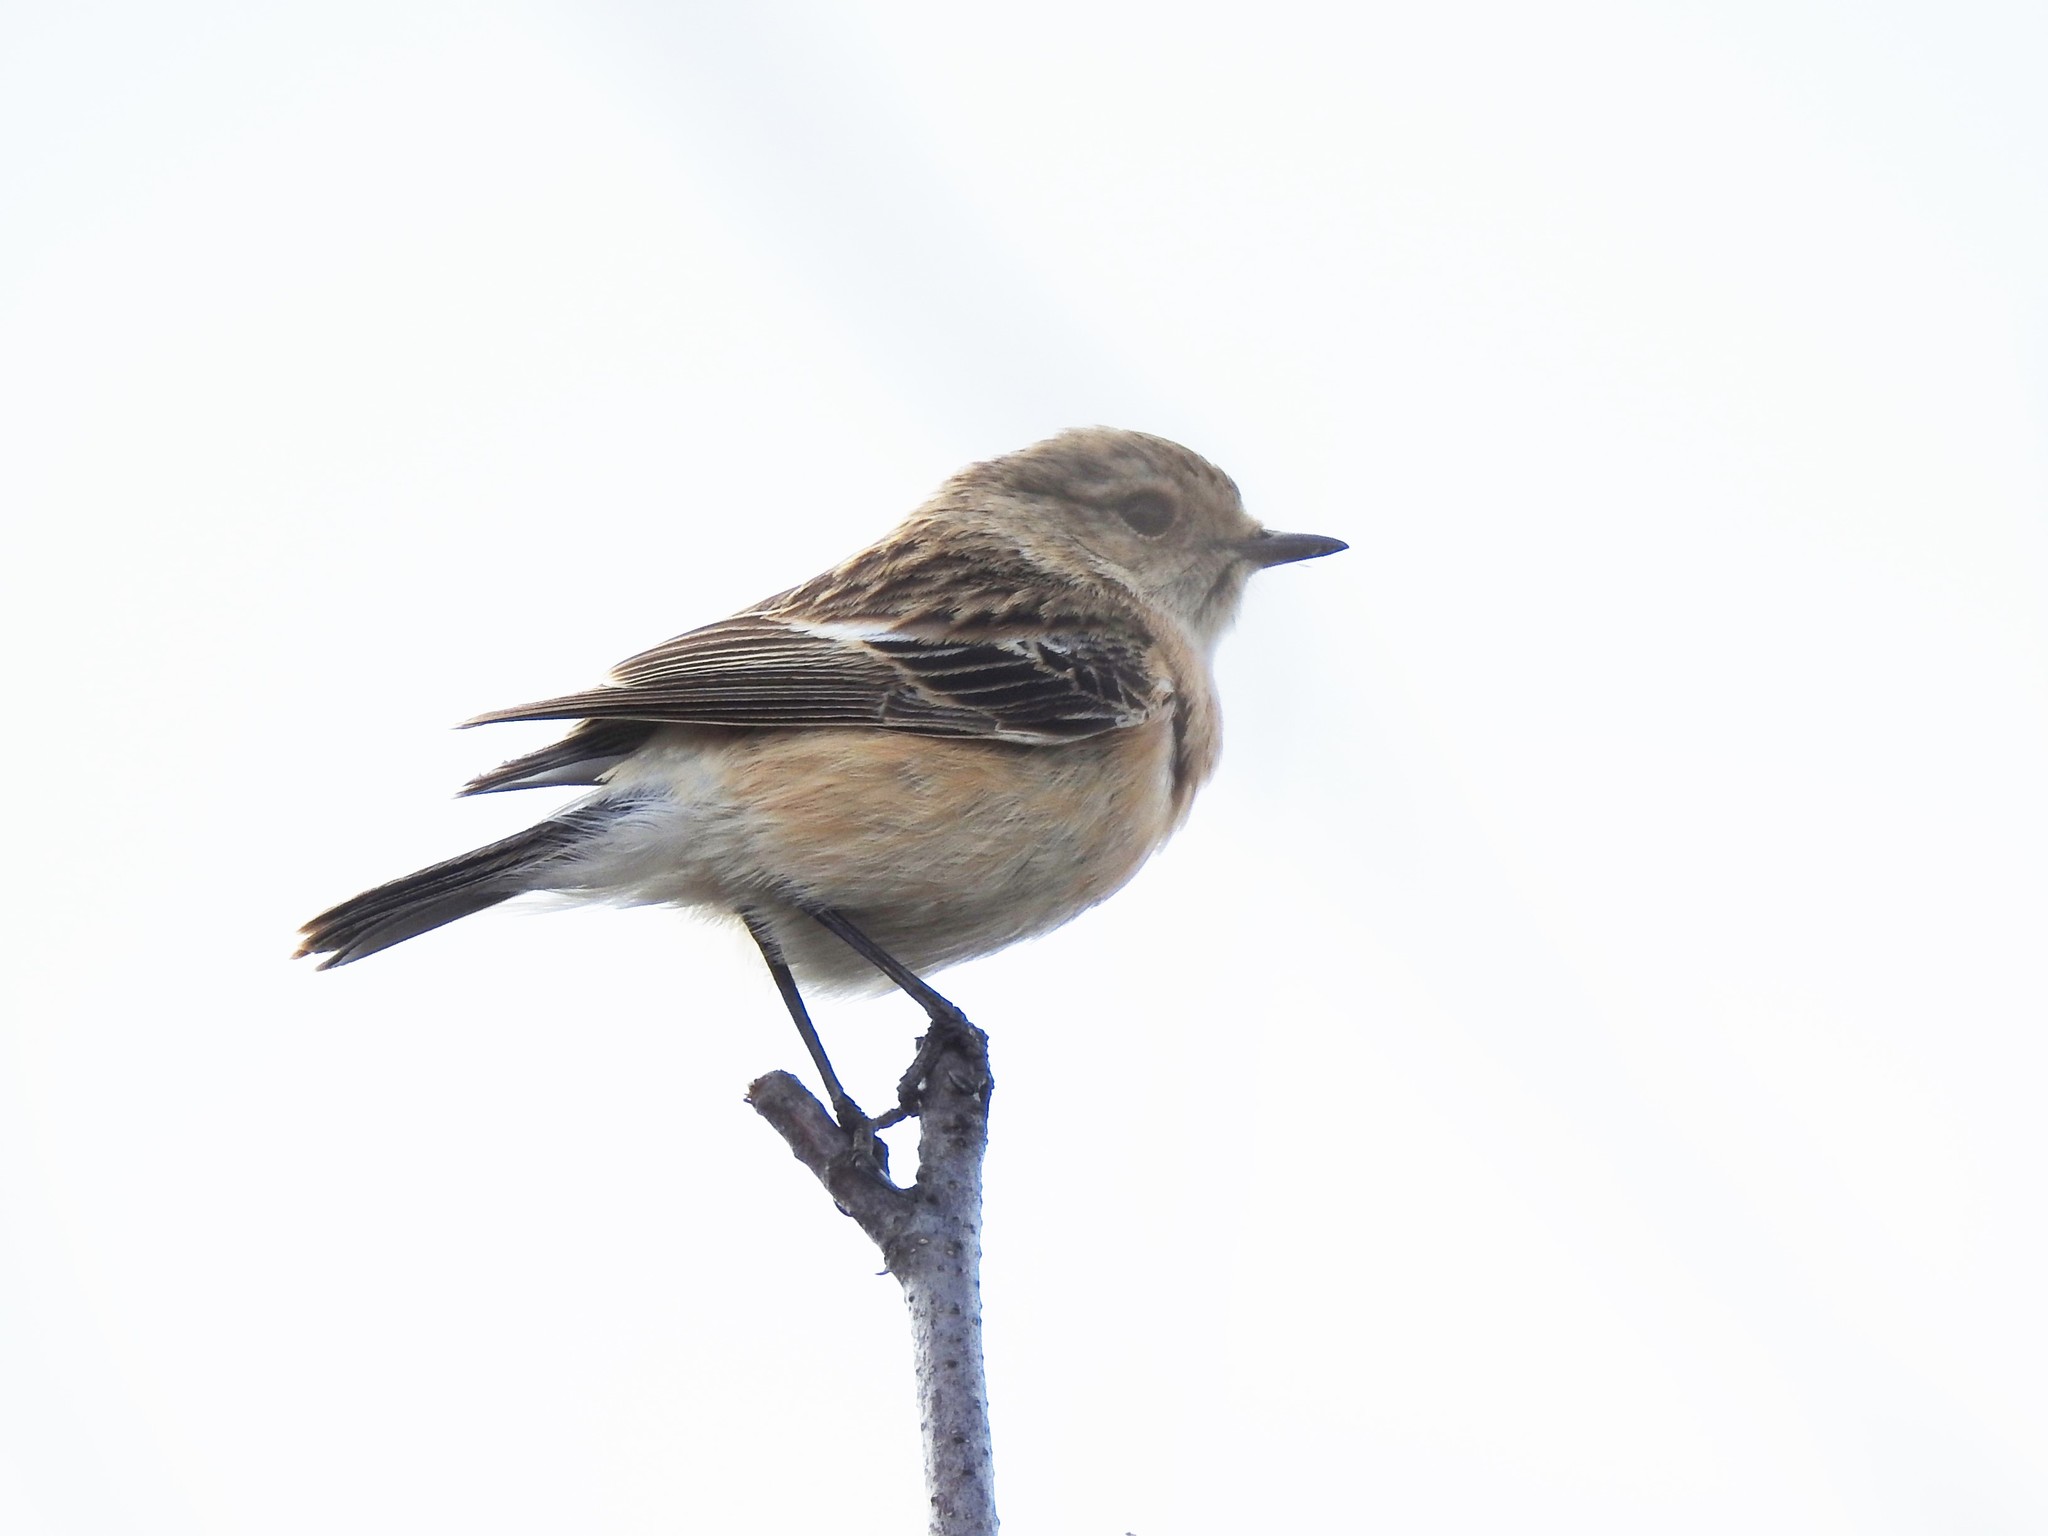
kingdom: Animalia
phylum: Chordata
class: Aves
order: Passeriformes
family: Muscicapidae
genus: Saxicola
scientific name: Saxicola maurus
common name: Siberian stonechat
